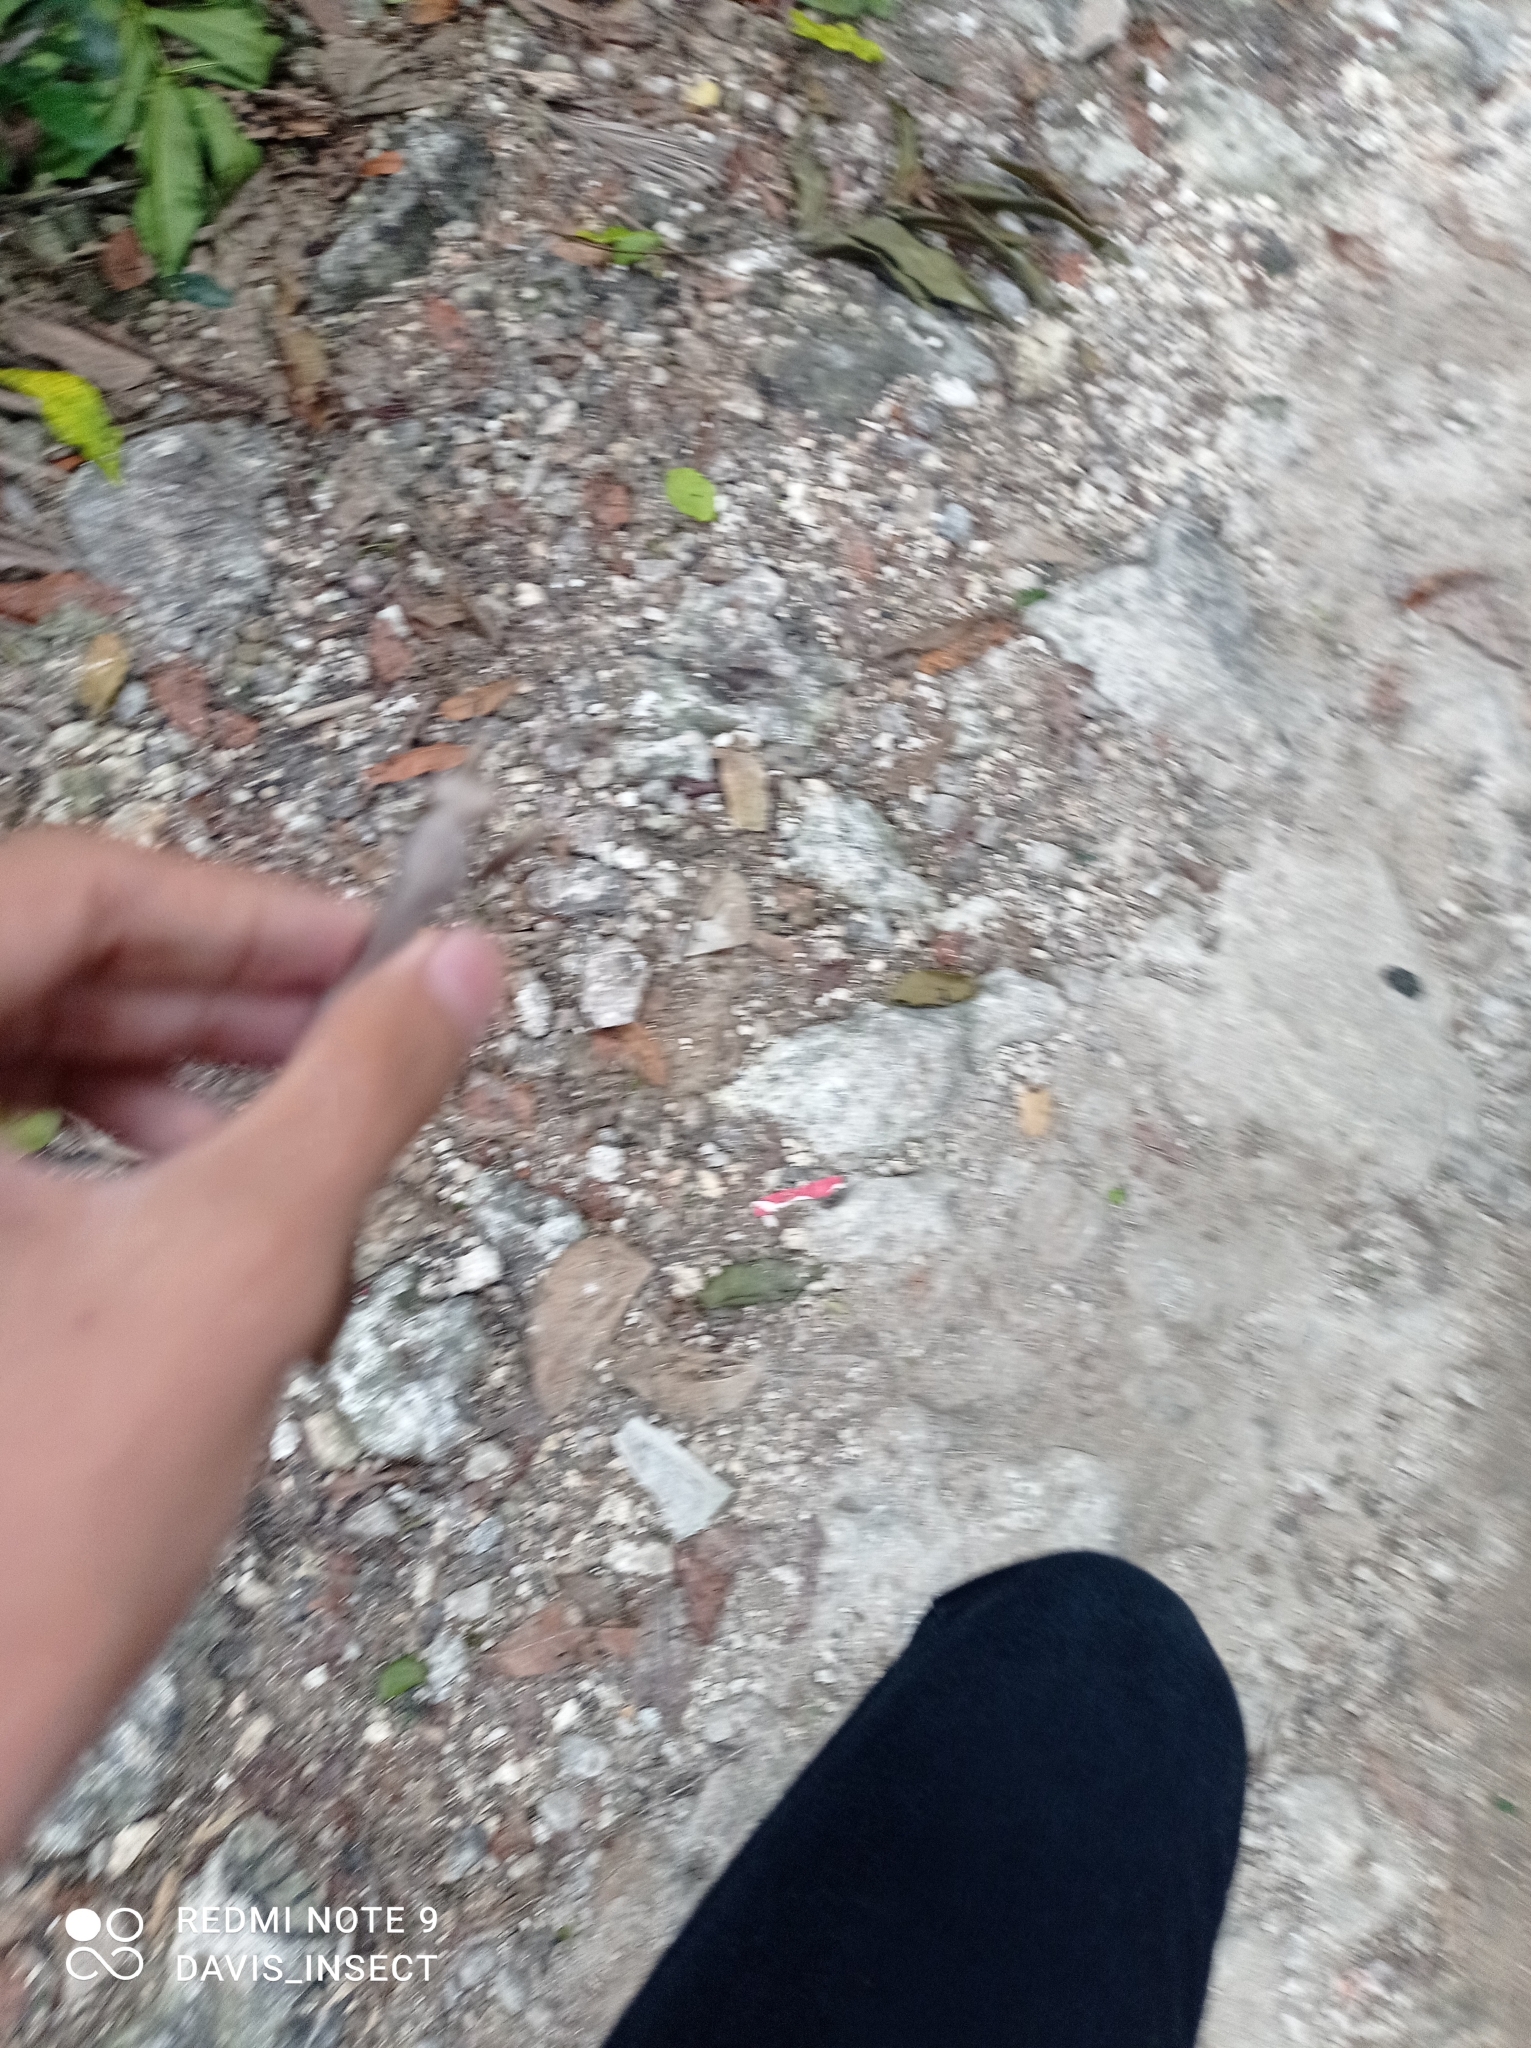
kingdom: Animalia
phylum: Arthropoda
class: Insecta
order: Mantodea
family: Mantidae
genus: Hierodula
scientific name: Hierodula timorensis
